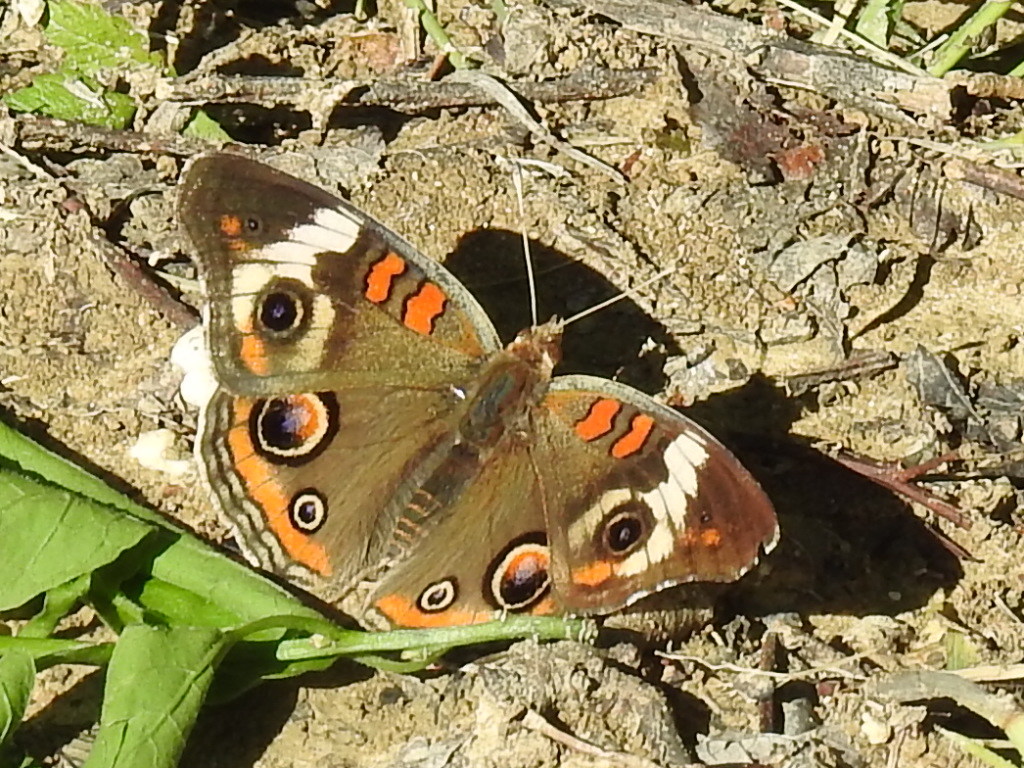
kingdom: Animalia
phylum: Arthropoda
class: Insecta
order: Lepidoptera
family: Nymphalidae
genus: Junonia
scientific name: Junonia coenia
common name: Common buckeye
